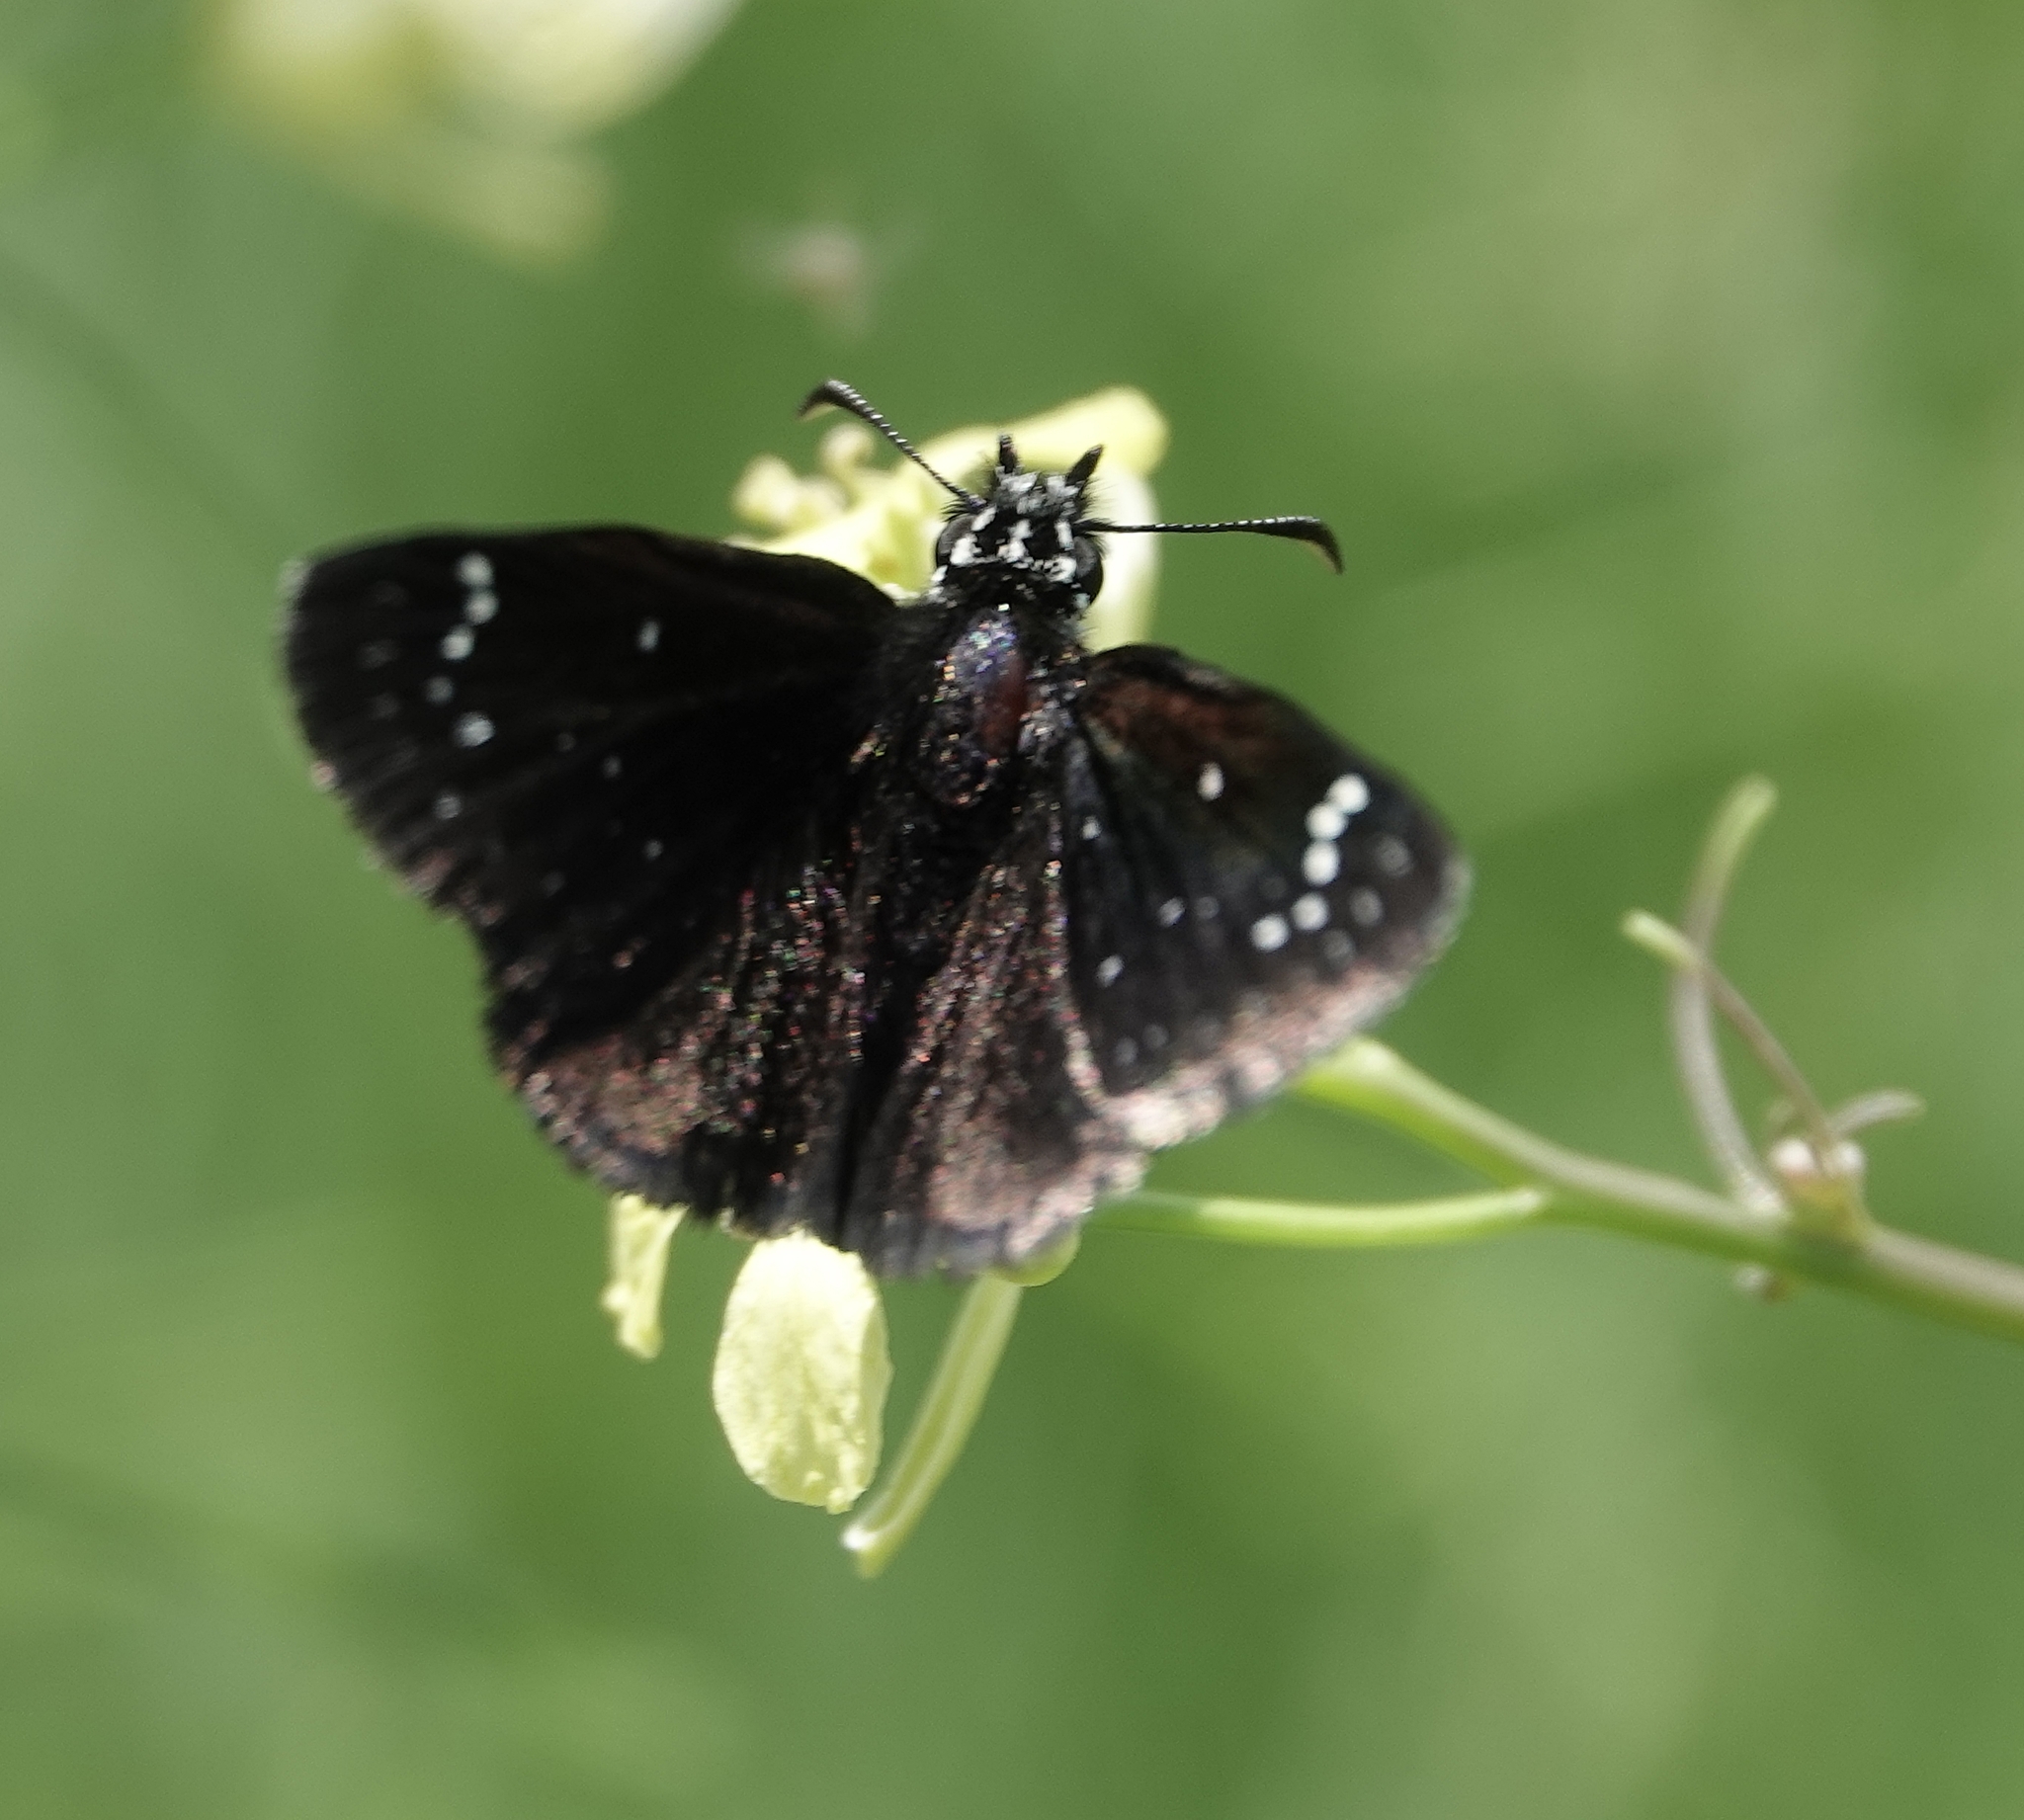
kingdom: Animalia
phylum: Arthropoda
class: Insecta
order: Lepidoptera
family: Hesperiidae
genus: Pholisora
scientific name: Pholisora catullus
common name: Common sootywing
